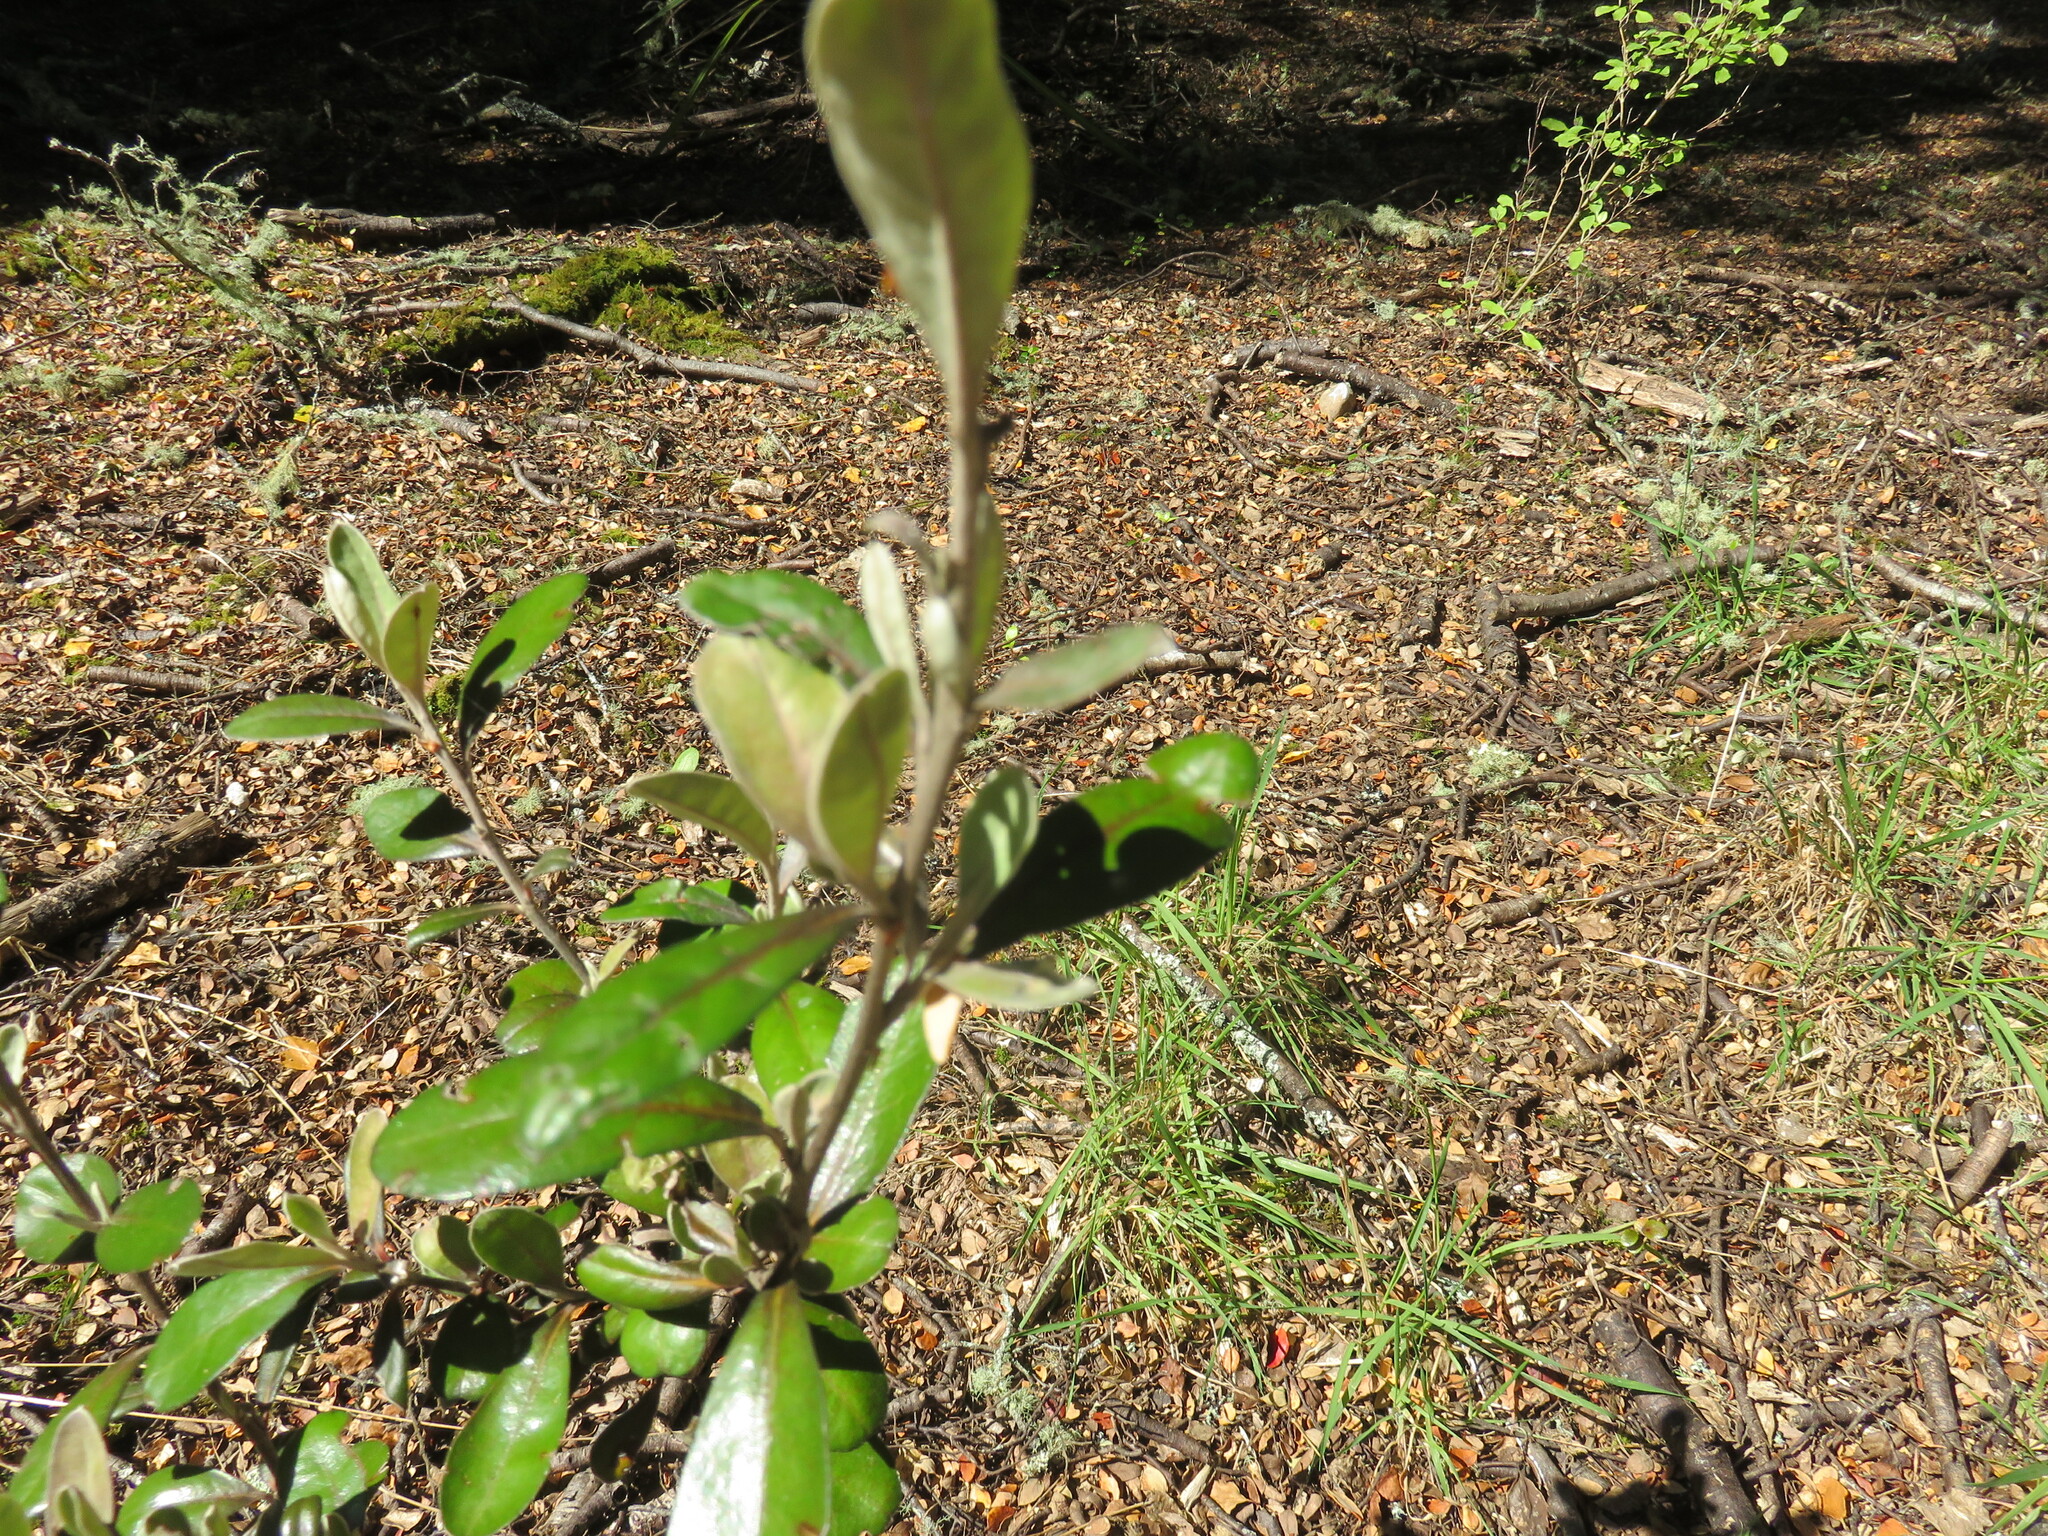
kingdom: Plantae
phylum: Tracheophyta
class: Magnoliopsida
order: Asterales
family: Argophyllaceae
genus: Corokia
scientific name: Corokia virgata
